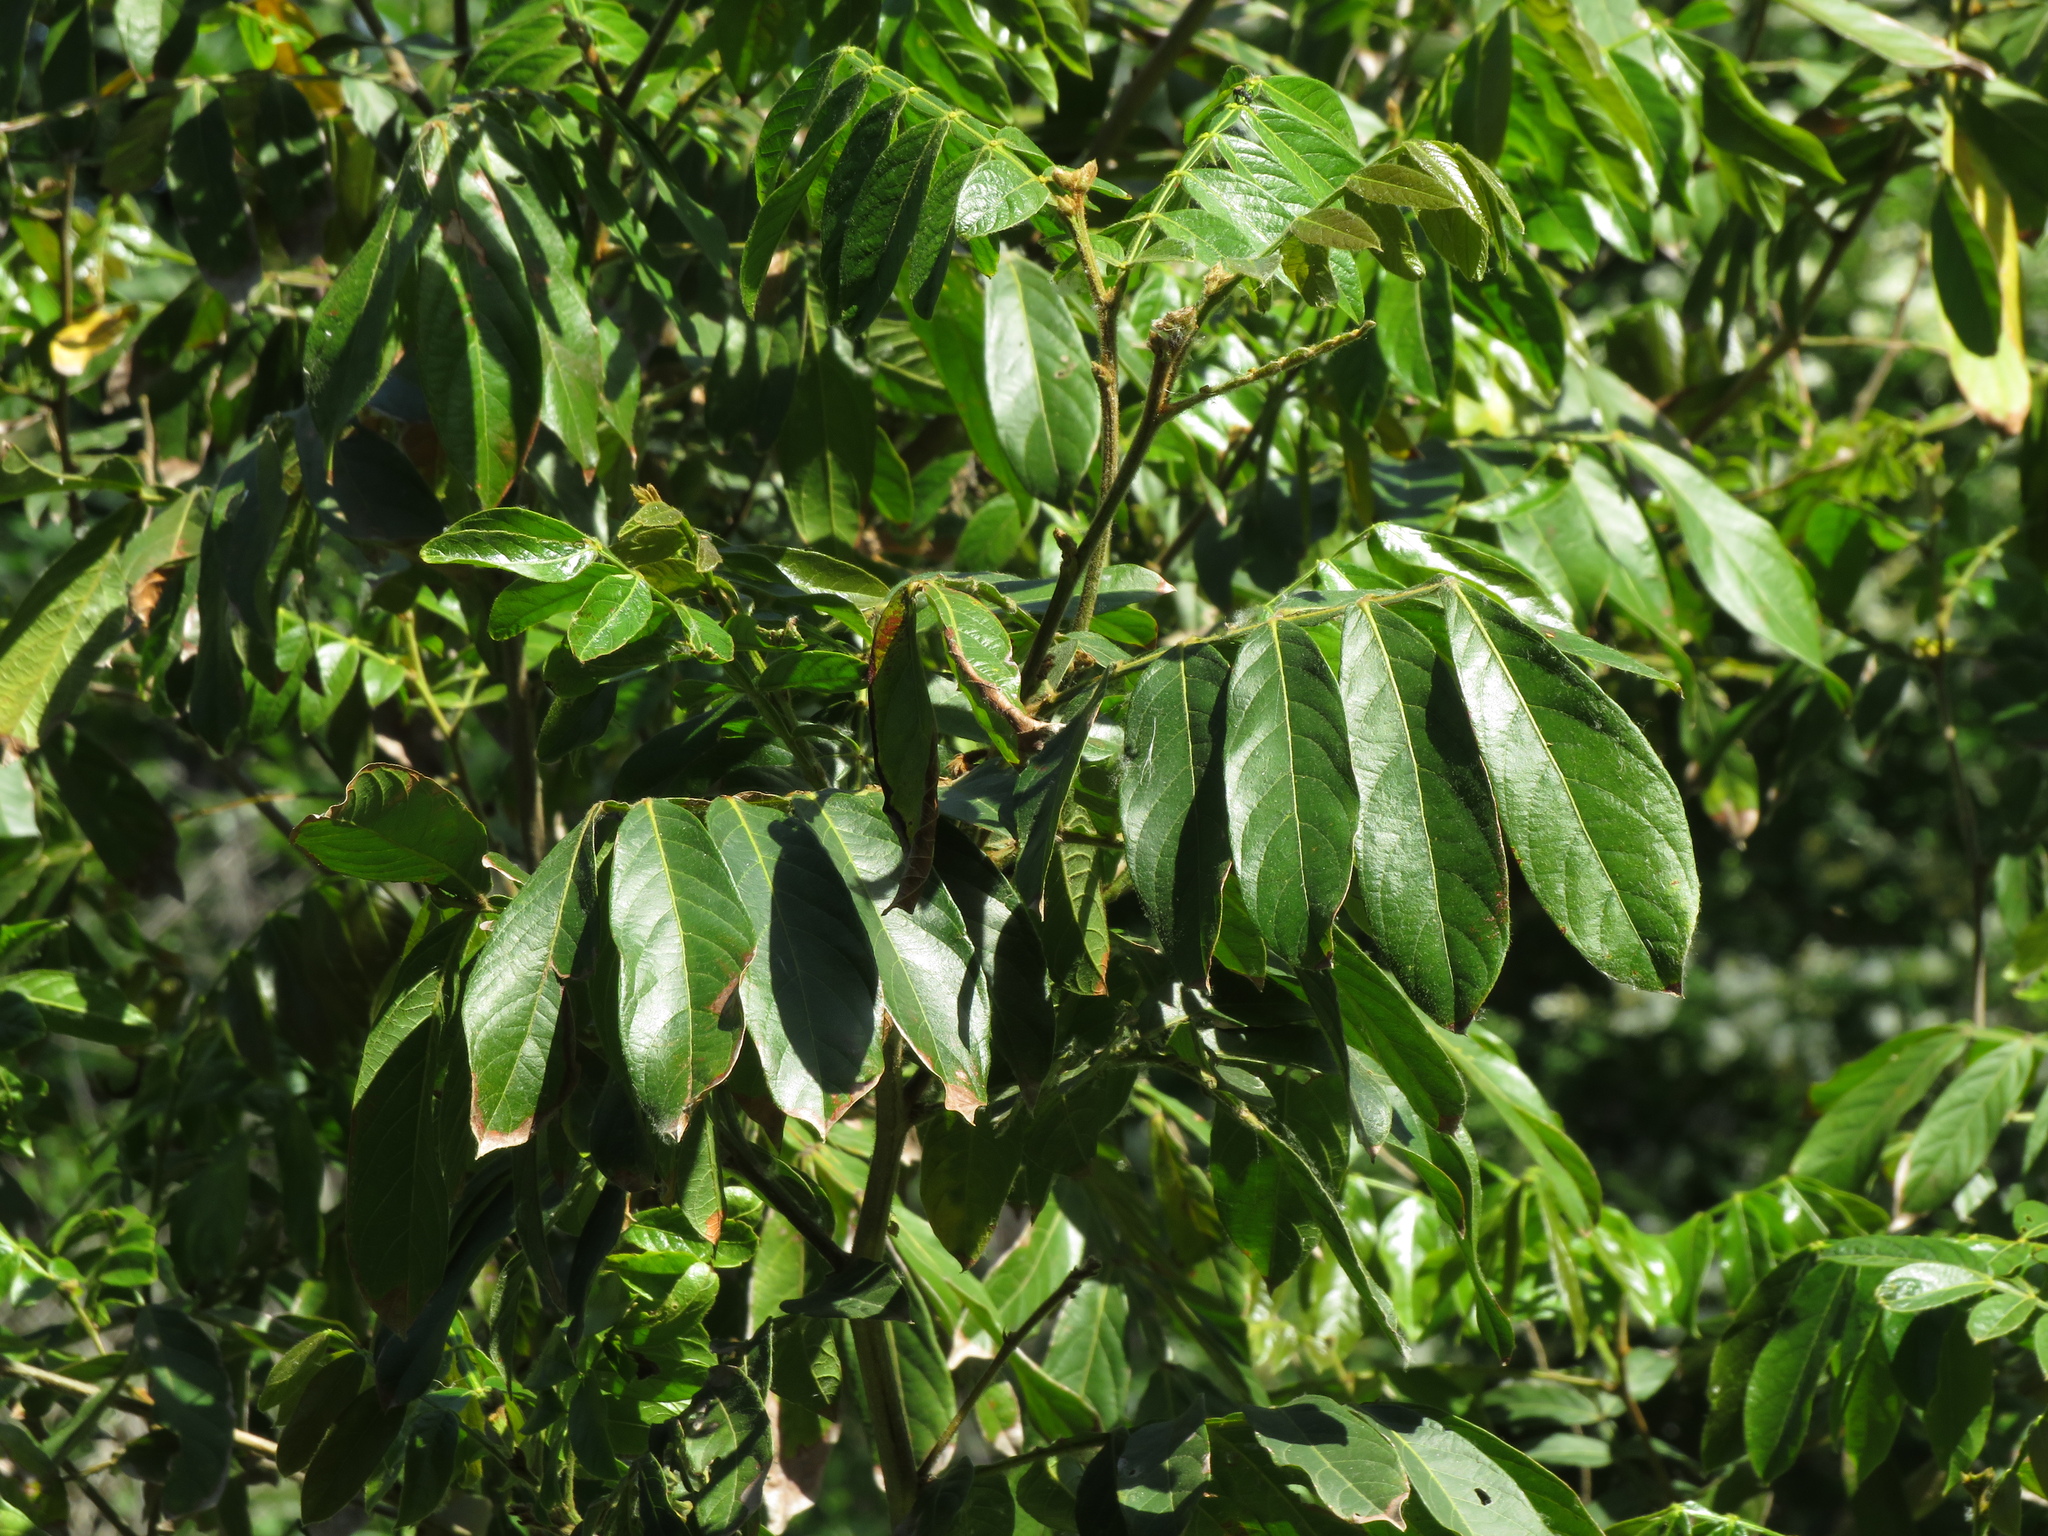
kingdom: Plantae
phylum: Tracheophyta
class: Magnoliopsida
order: Fabales
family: Fabaceae
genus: Inga
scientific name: Inga uraguensis
